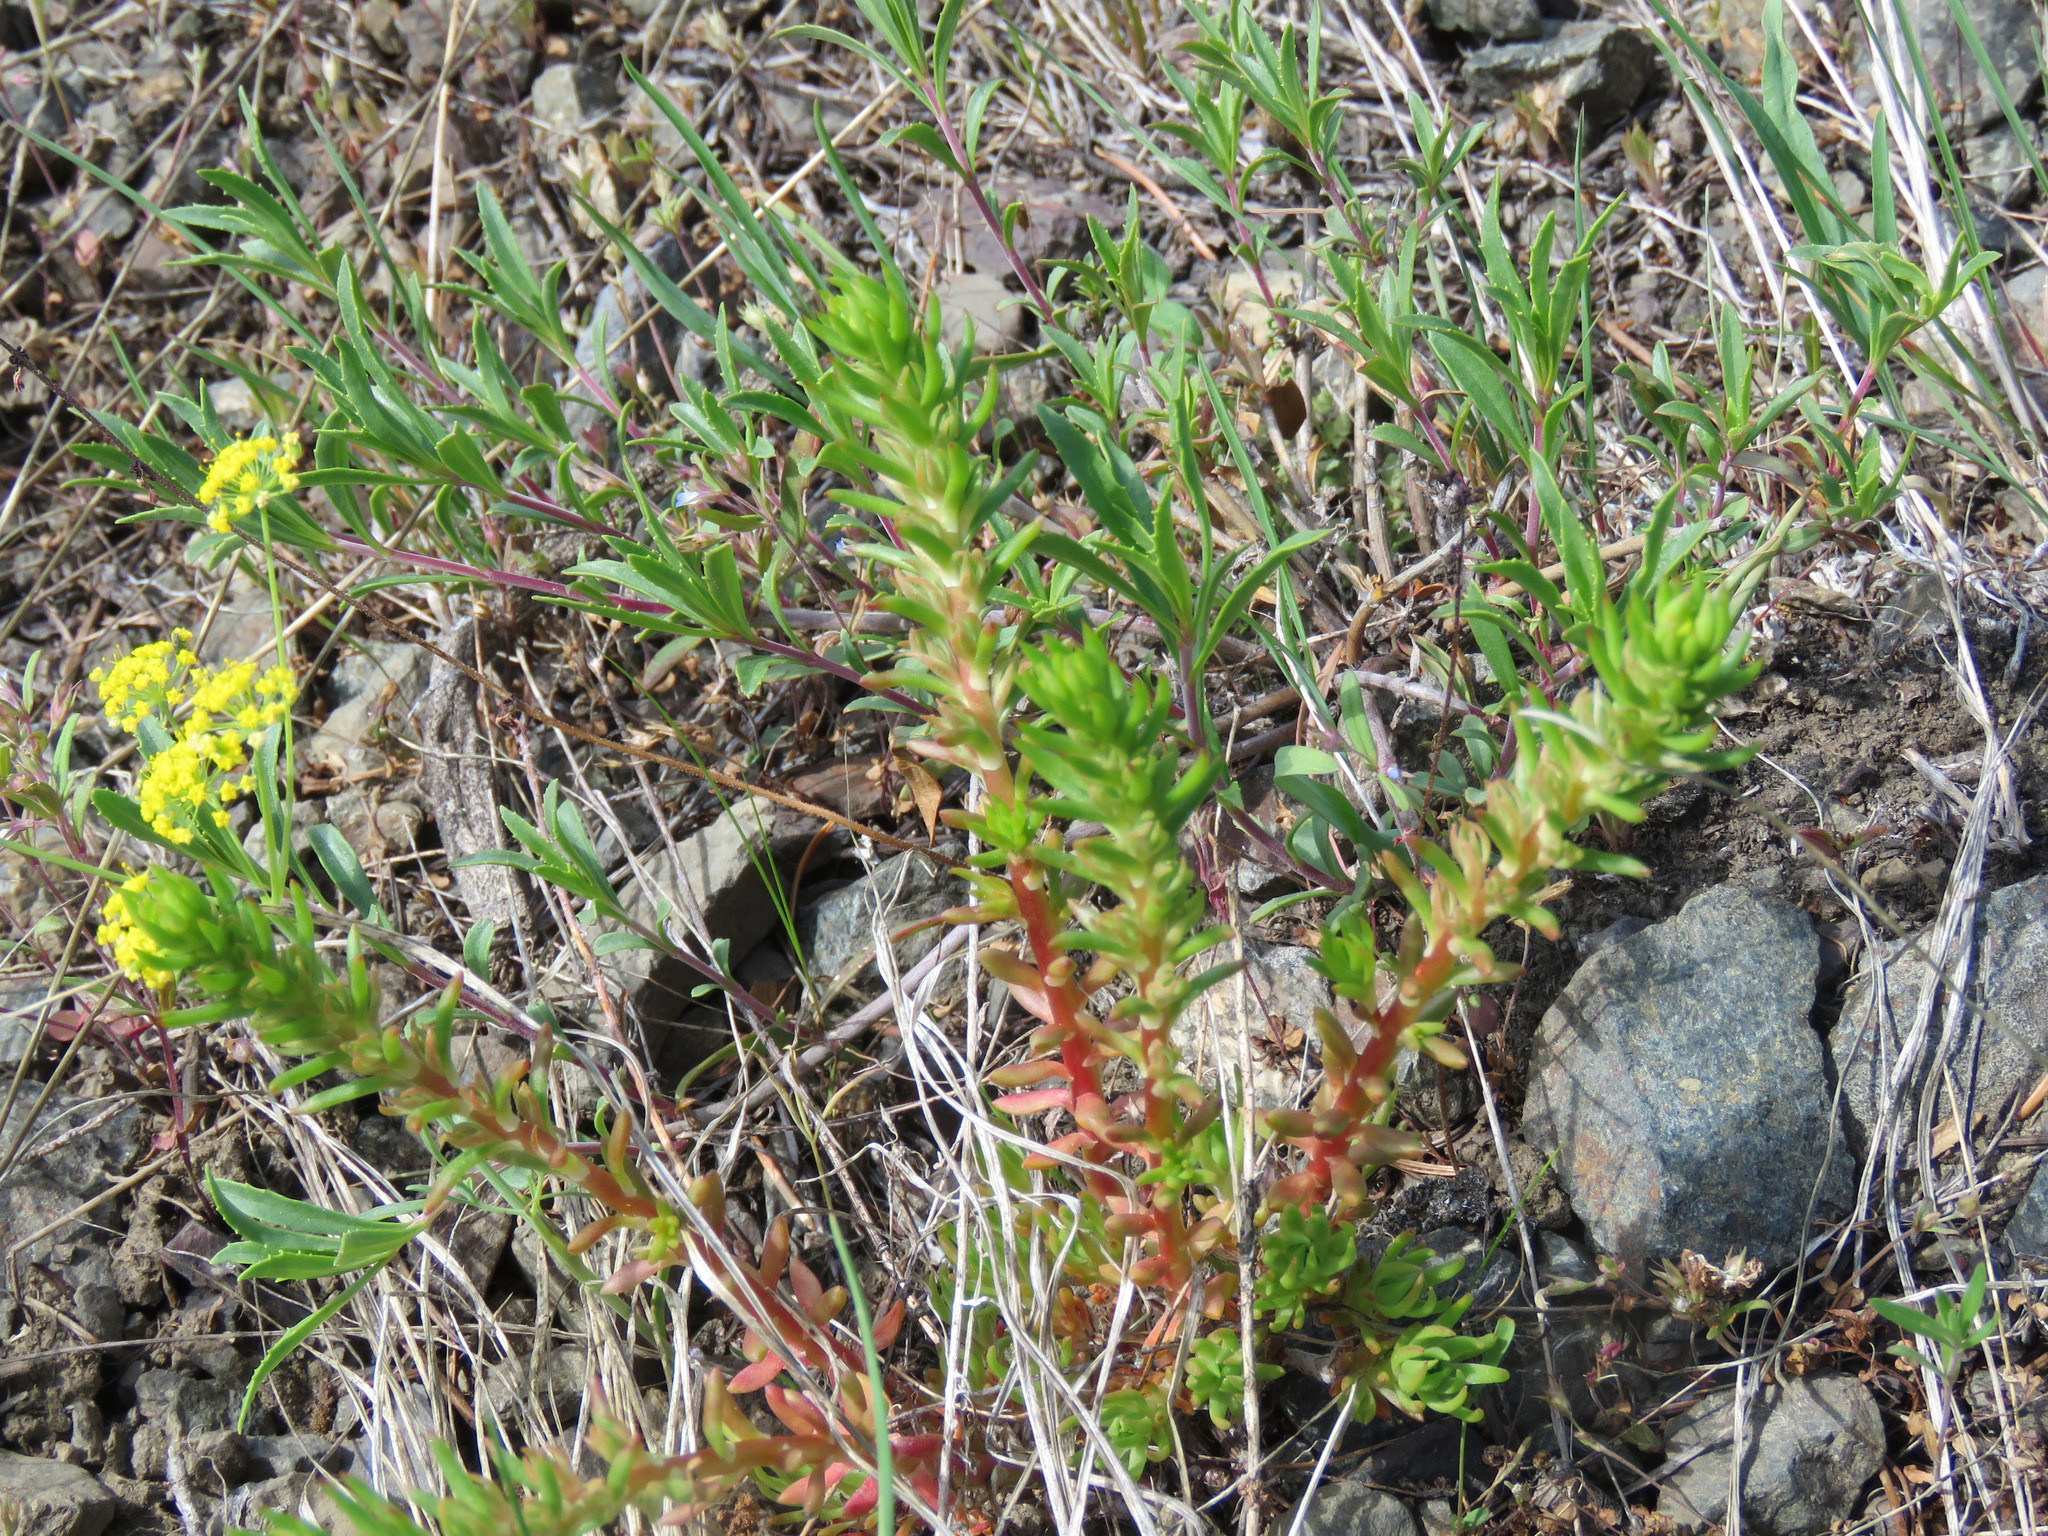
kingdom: Plantae
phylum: Tracheophyta
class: Magnoliopsida
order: Saxifragales
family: Crassulaceae
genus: Sedum
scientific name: Sedum stenopetalum
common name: Narrow-petaled stonecrop
